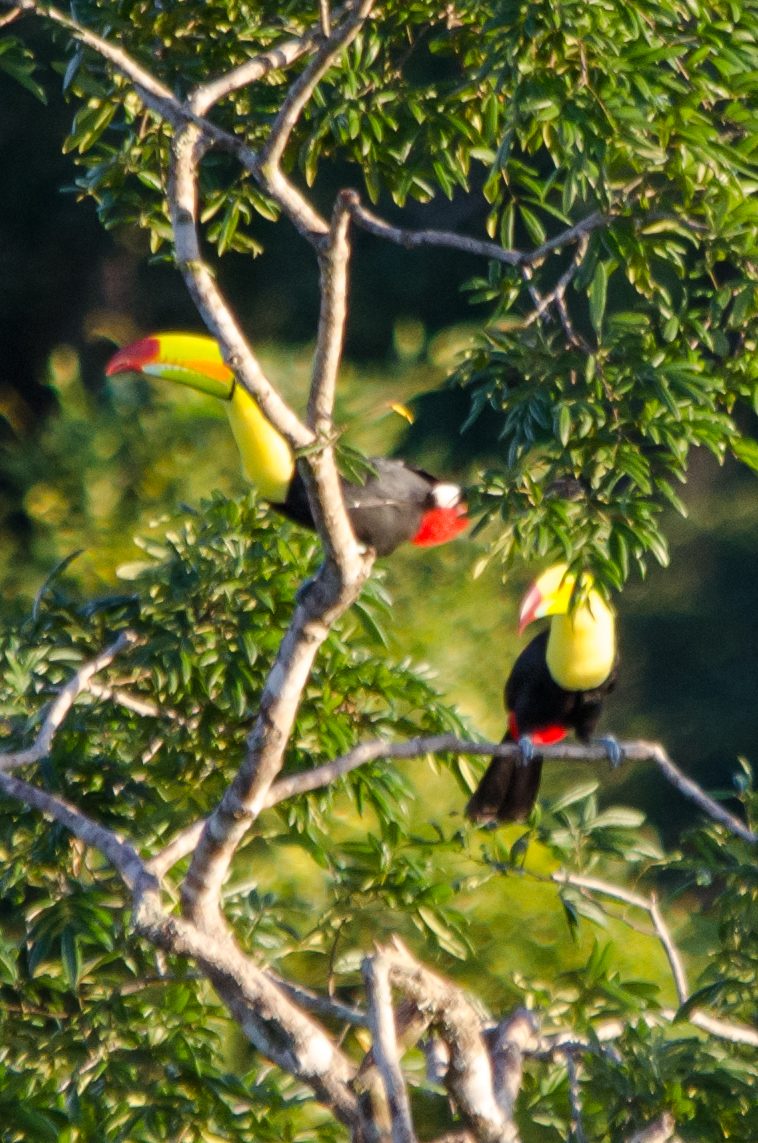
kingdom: Animalia
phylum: Chordata
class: Aves
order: Piciformes
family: Ramphastidae
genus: Ramphastos
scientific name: Ramphastos sulfuratus
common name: Keel-billed toucan
